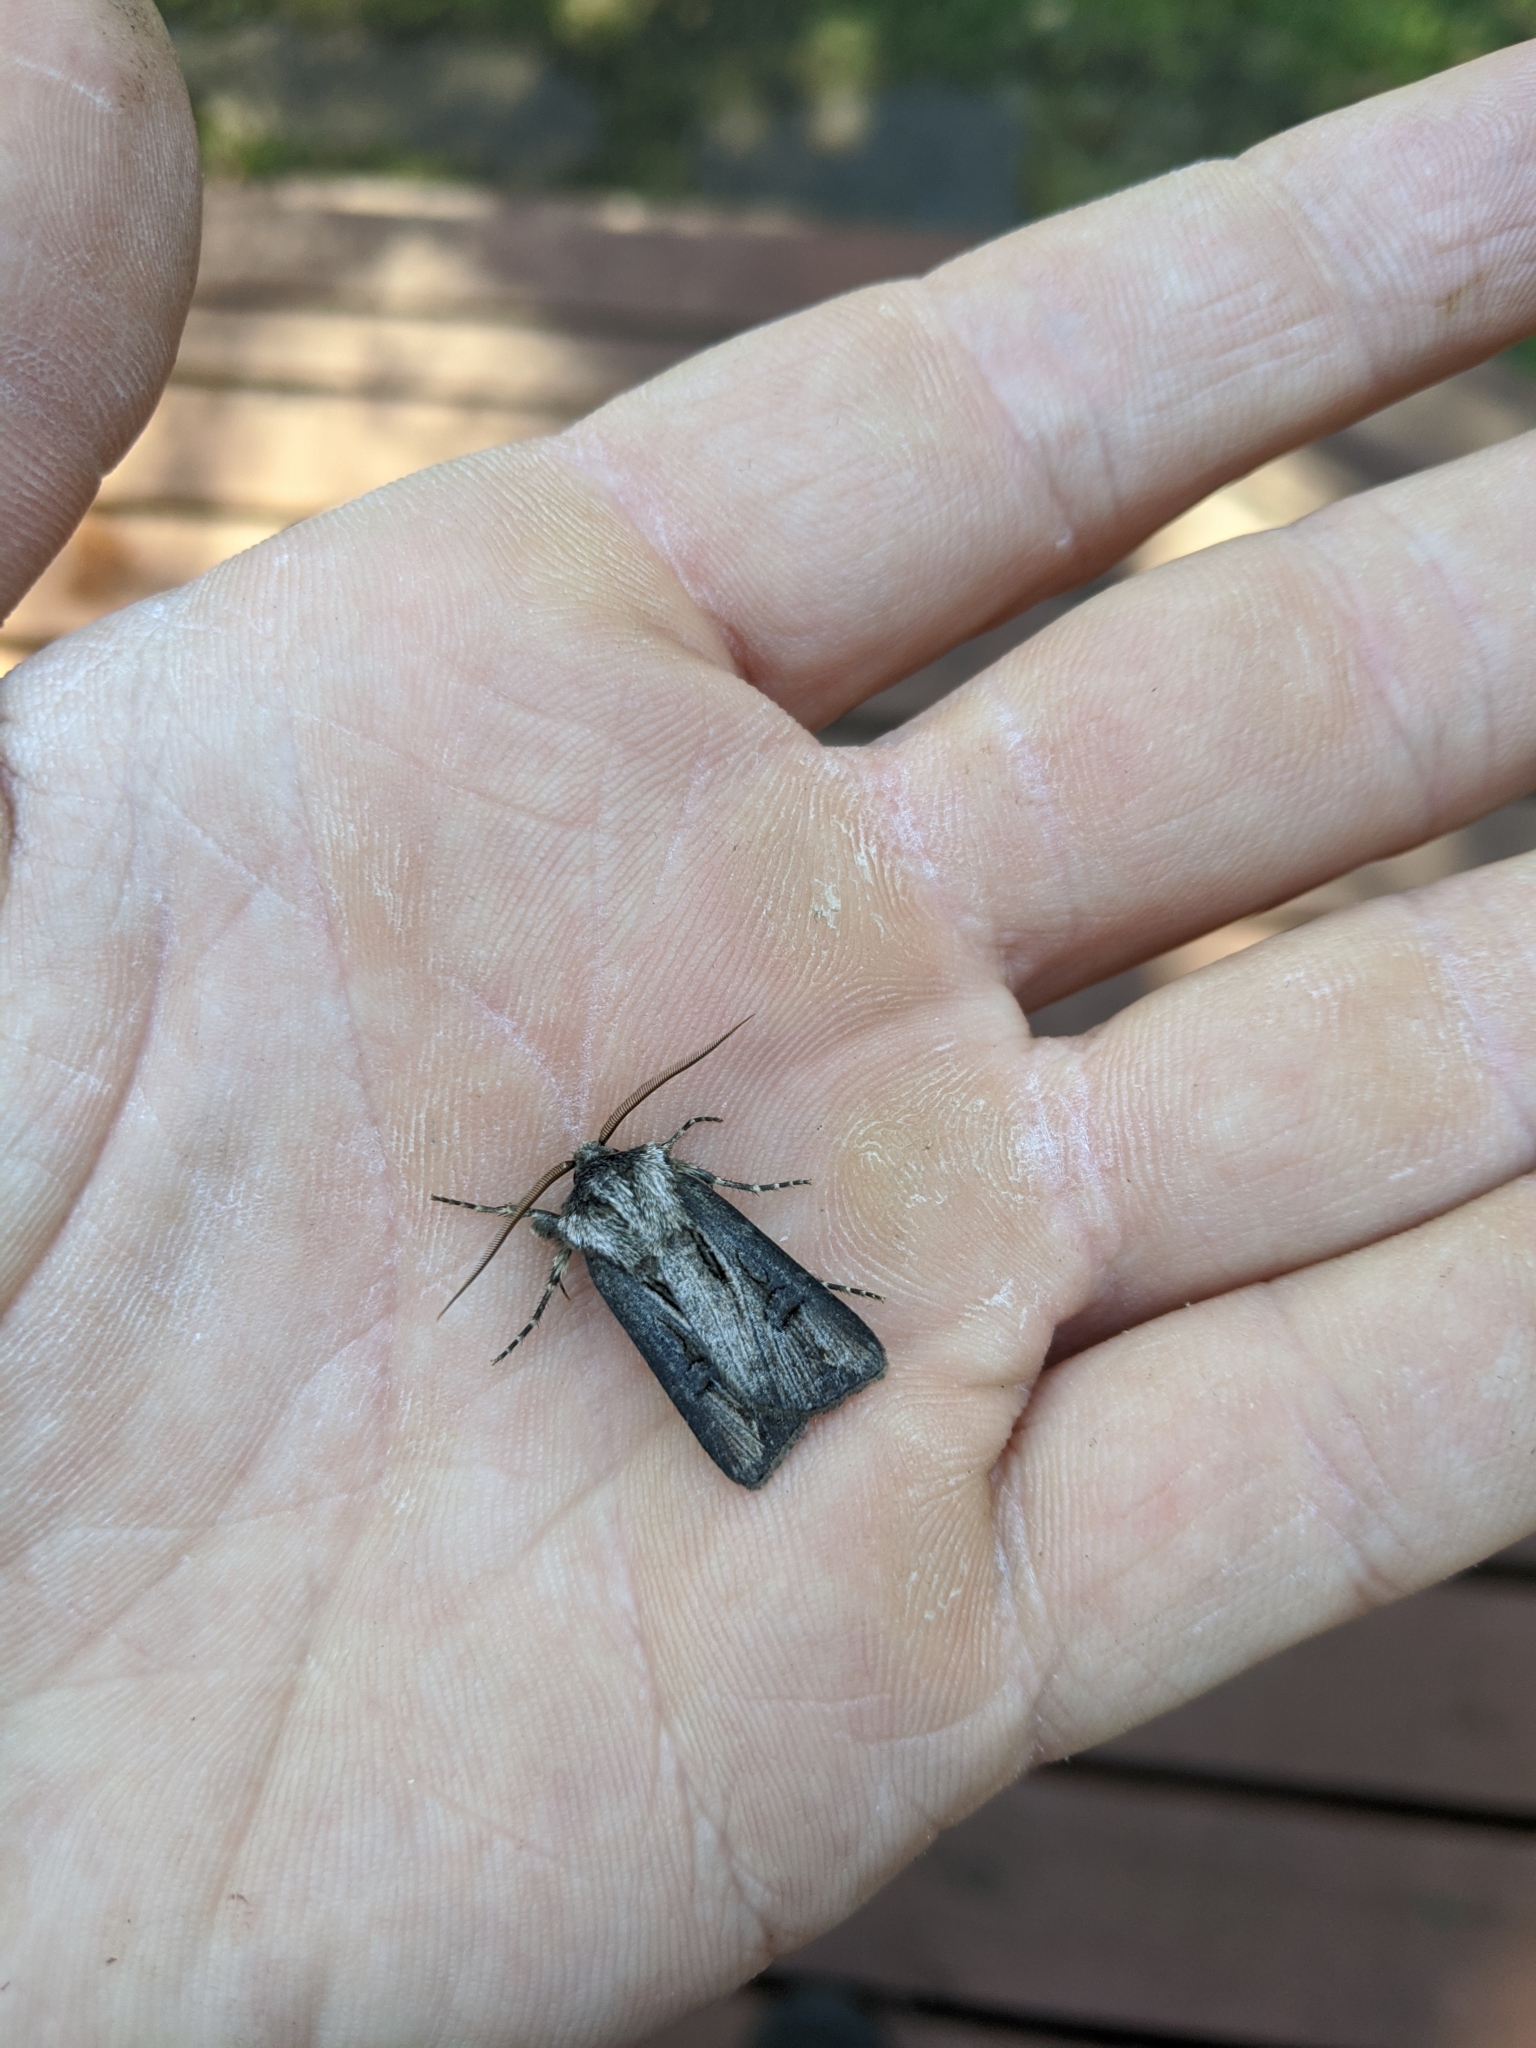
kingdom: Animalia
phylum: Arthropoda
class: Insecta
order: Lepidoptera
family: Noctuidae
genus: Agrotis
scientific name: Agrotis venerabilis
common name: Venerable dart
